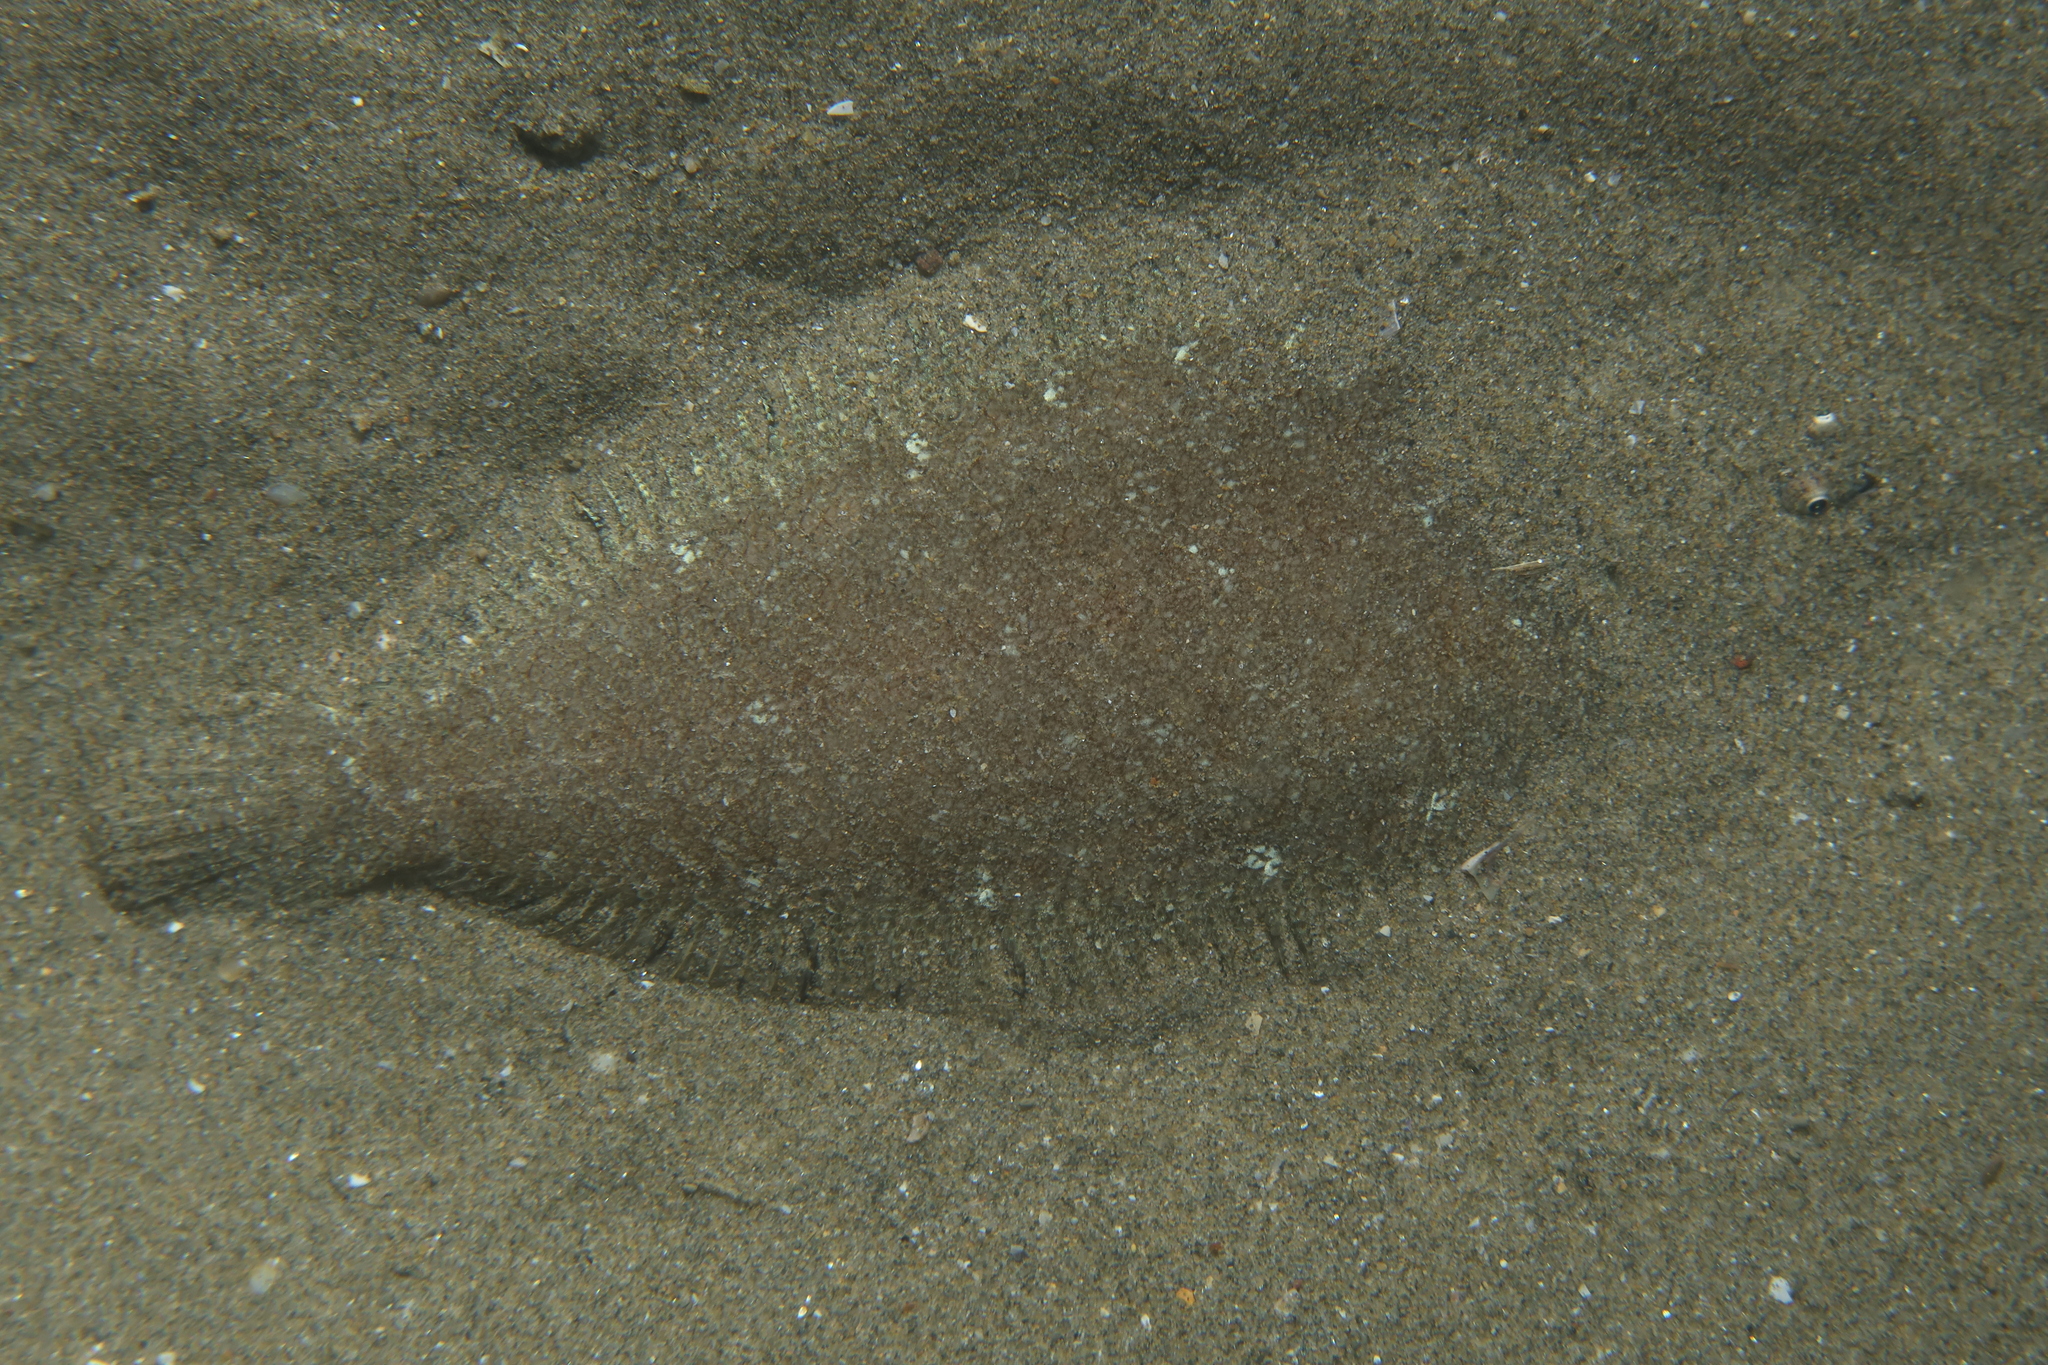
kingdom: Animalia
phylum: Chordata
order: Pleuronectiformes
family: Soleidae
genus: Buglossidium
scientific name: Buglossidium luteum
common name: Solenette
